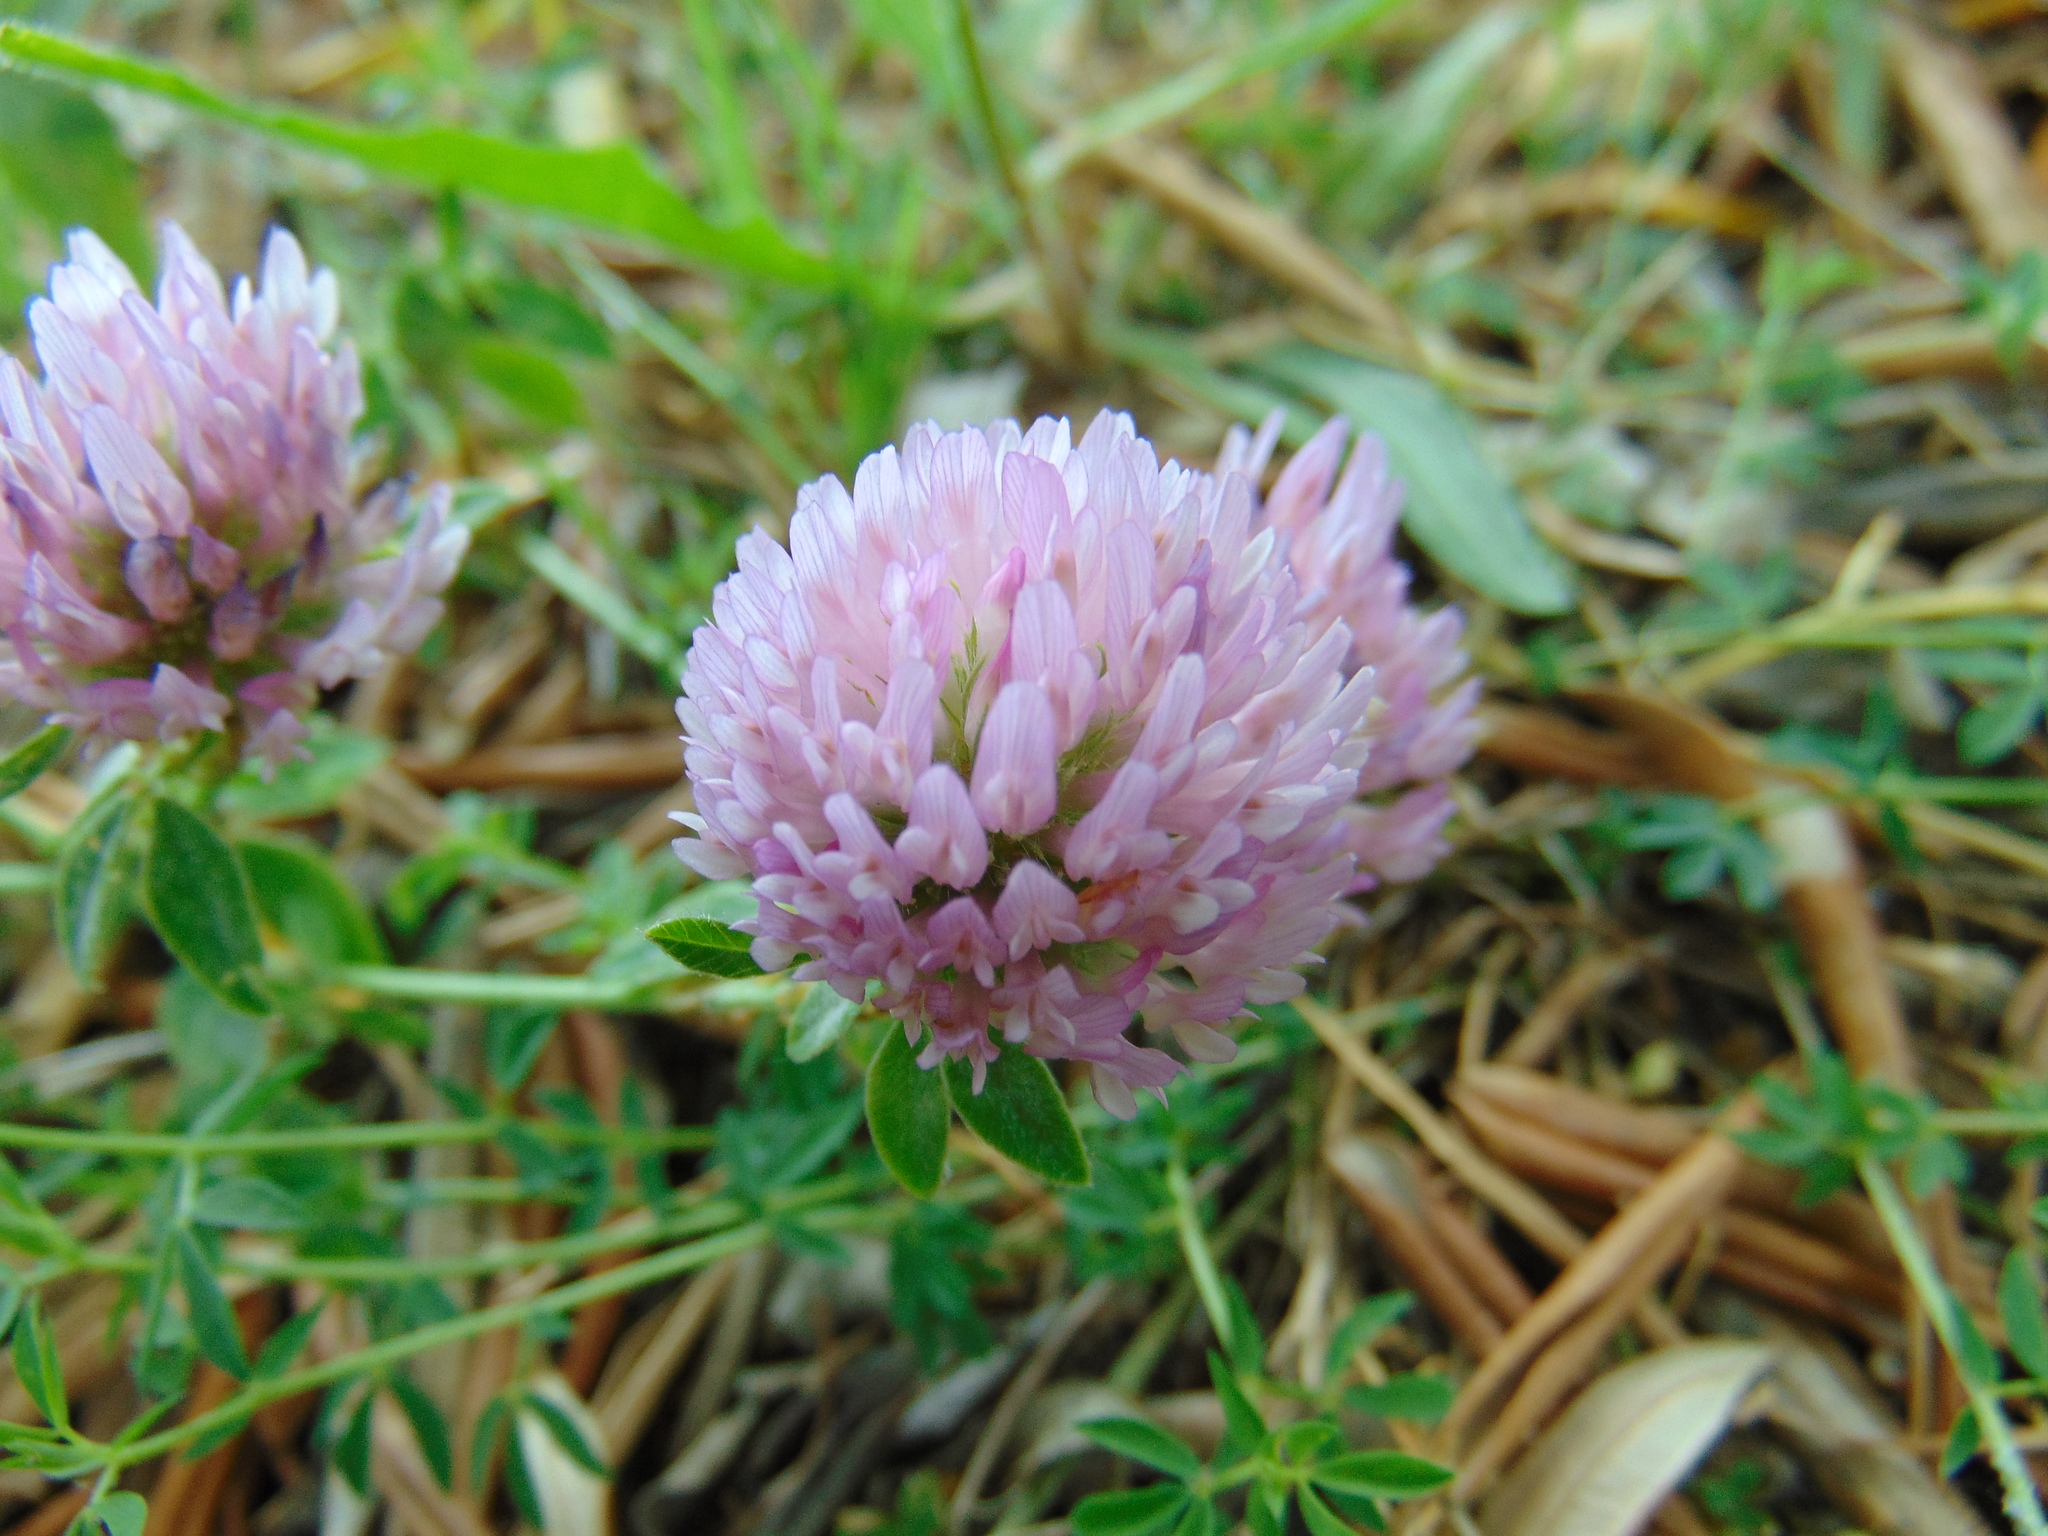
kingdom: Plantae
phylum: Tracheophyta
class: Magnoliopsida
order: Fabales
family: Fabaceae
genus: Trifolium
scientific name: Trifolium pratense
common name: Red clover
